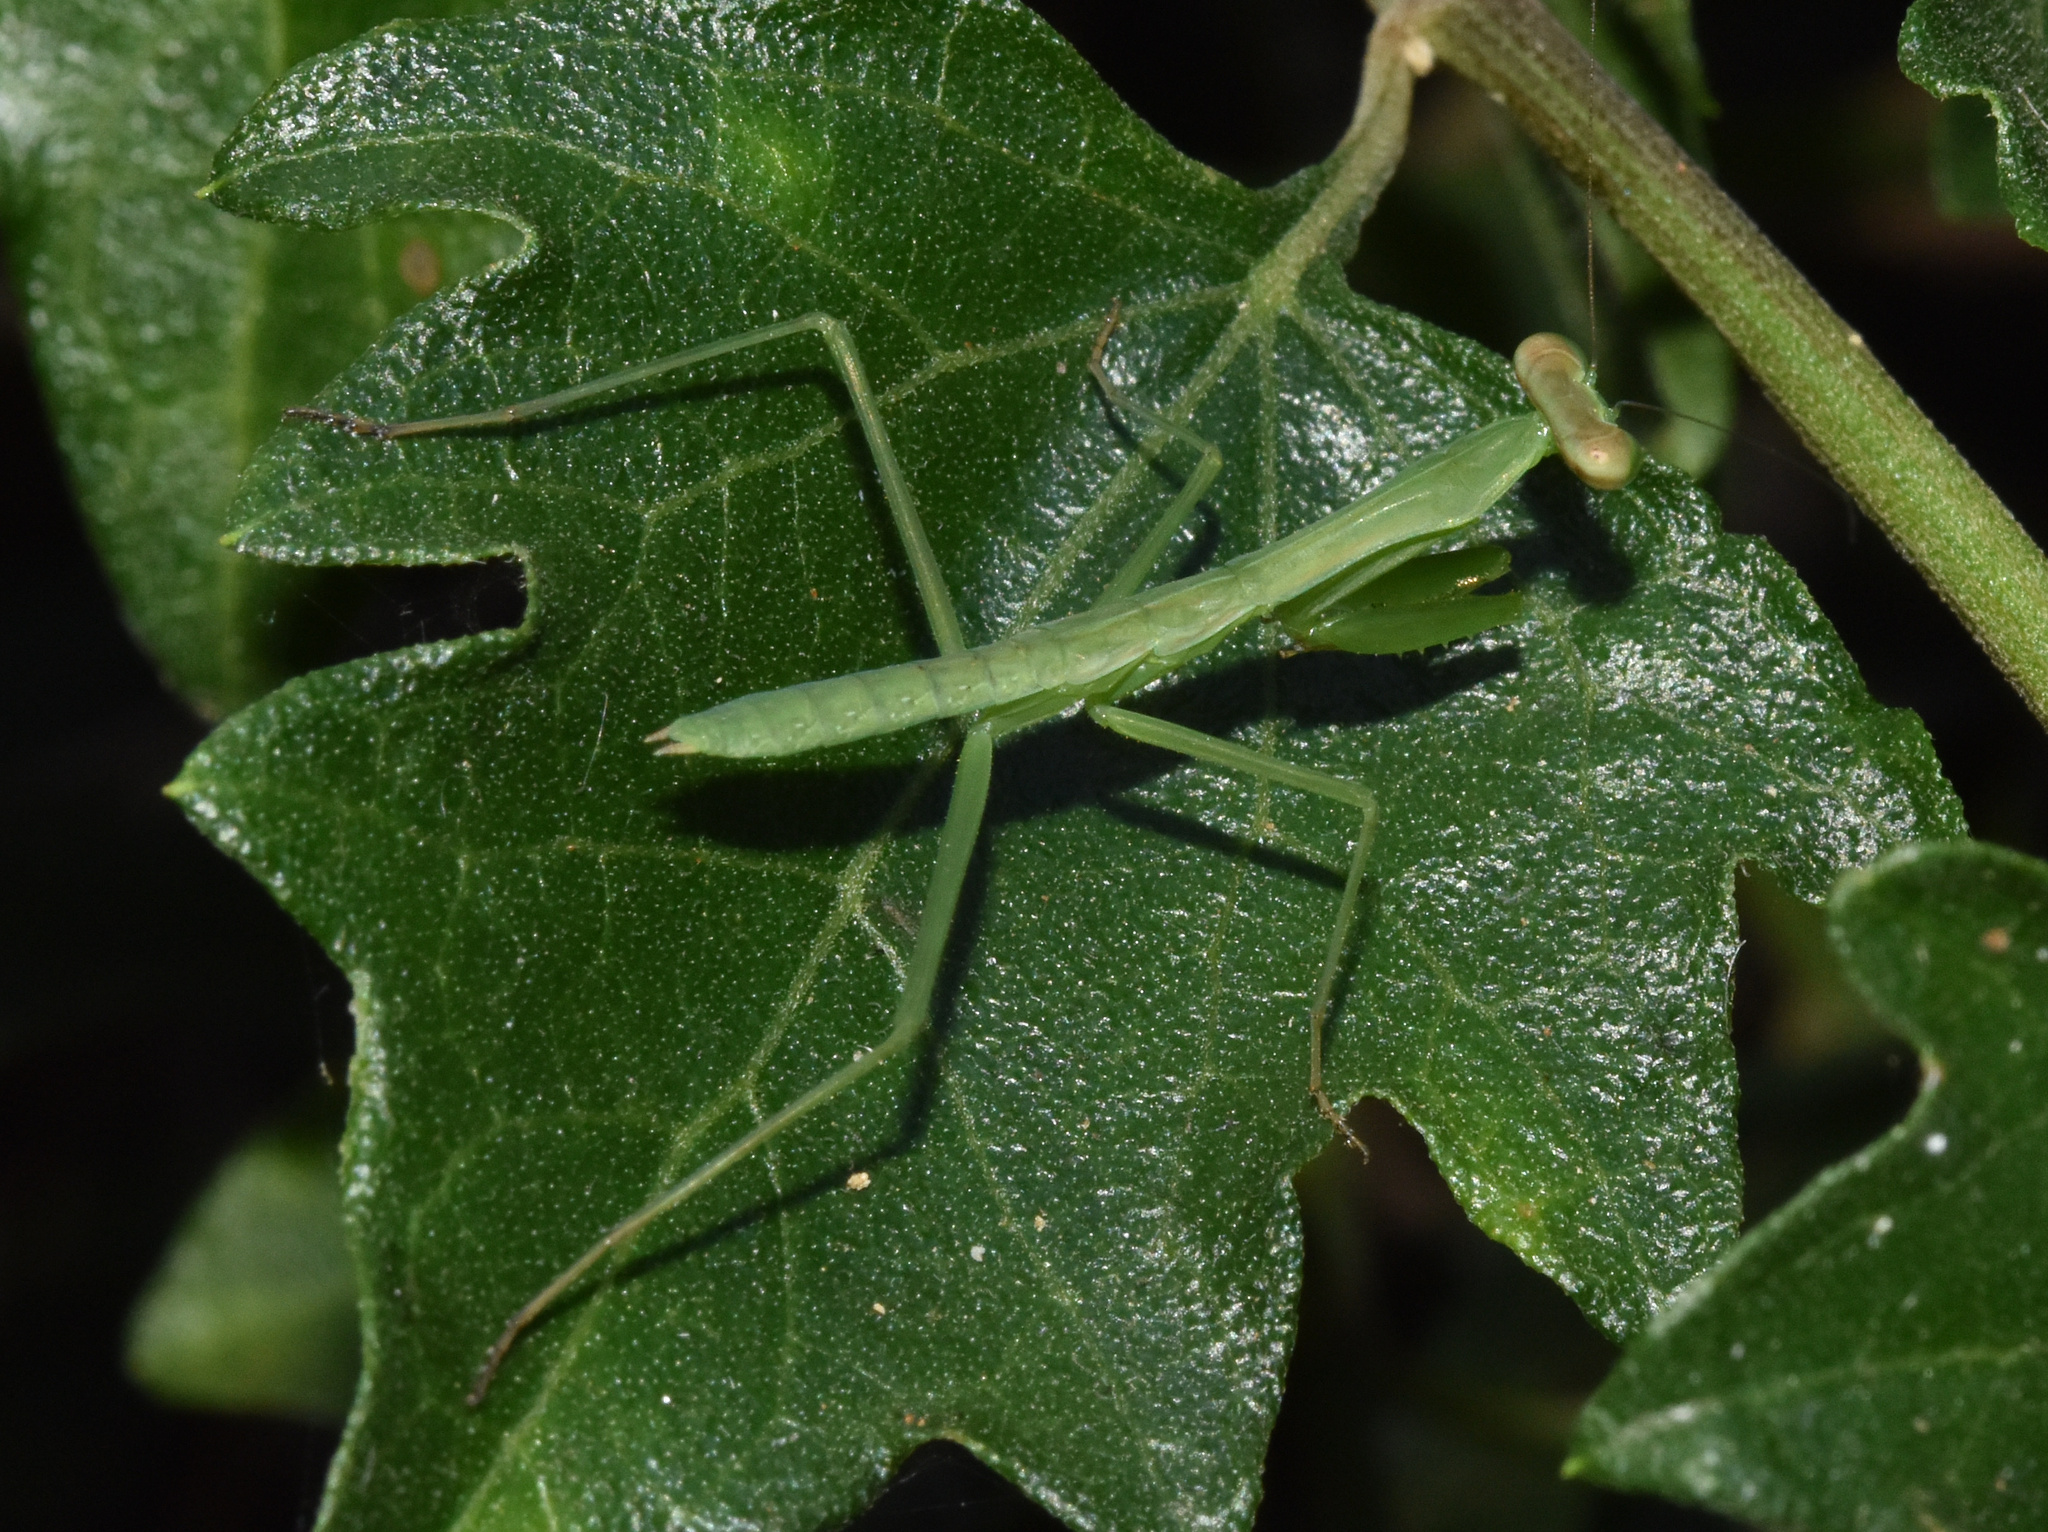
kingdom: Animalia
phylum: Arthropoda
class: Insecta
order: Mantodea
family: Mantidae
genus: Polyspilota
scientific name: Polyspilota aeruginosa
